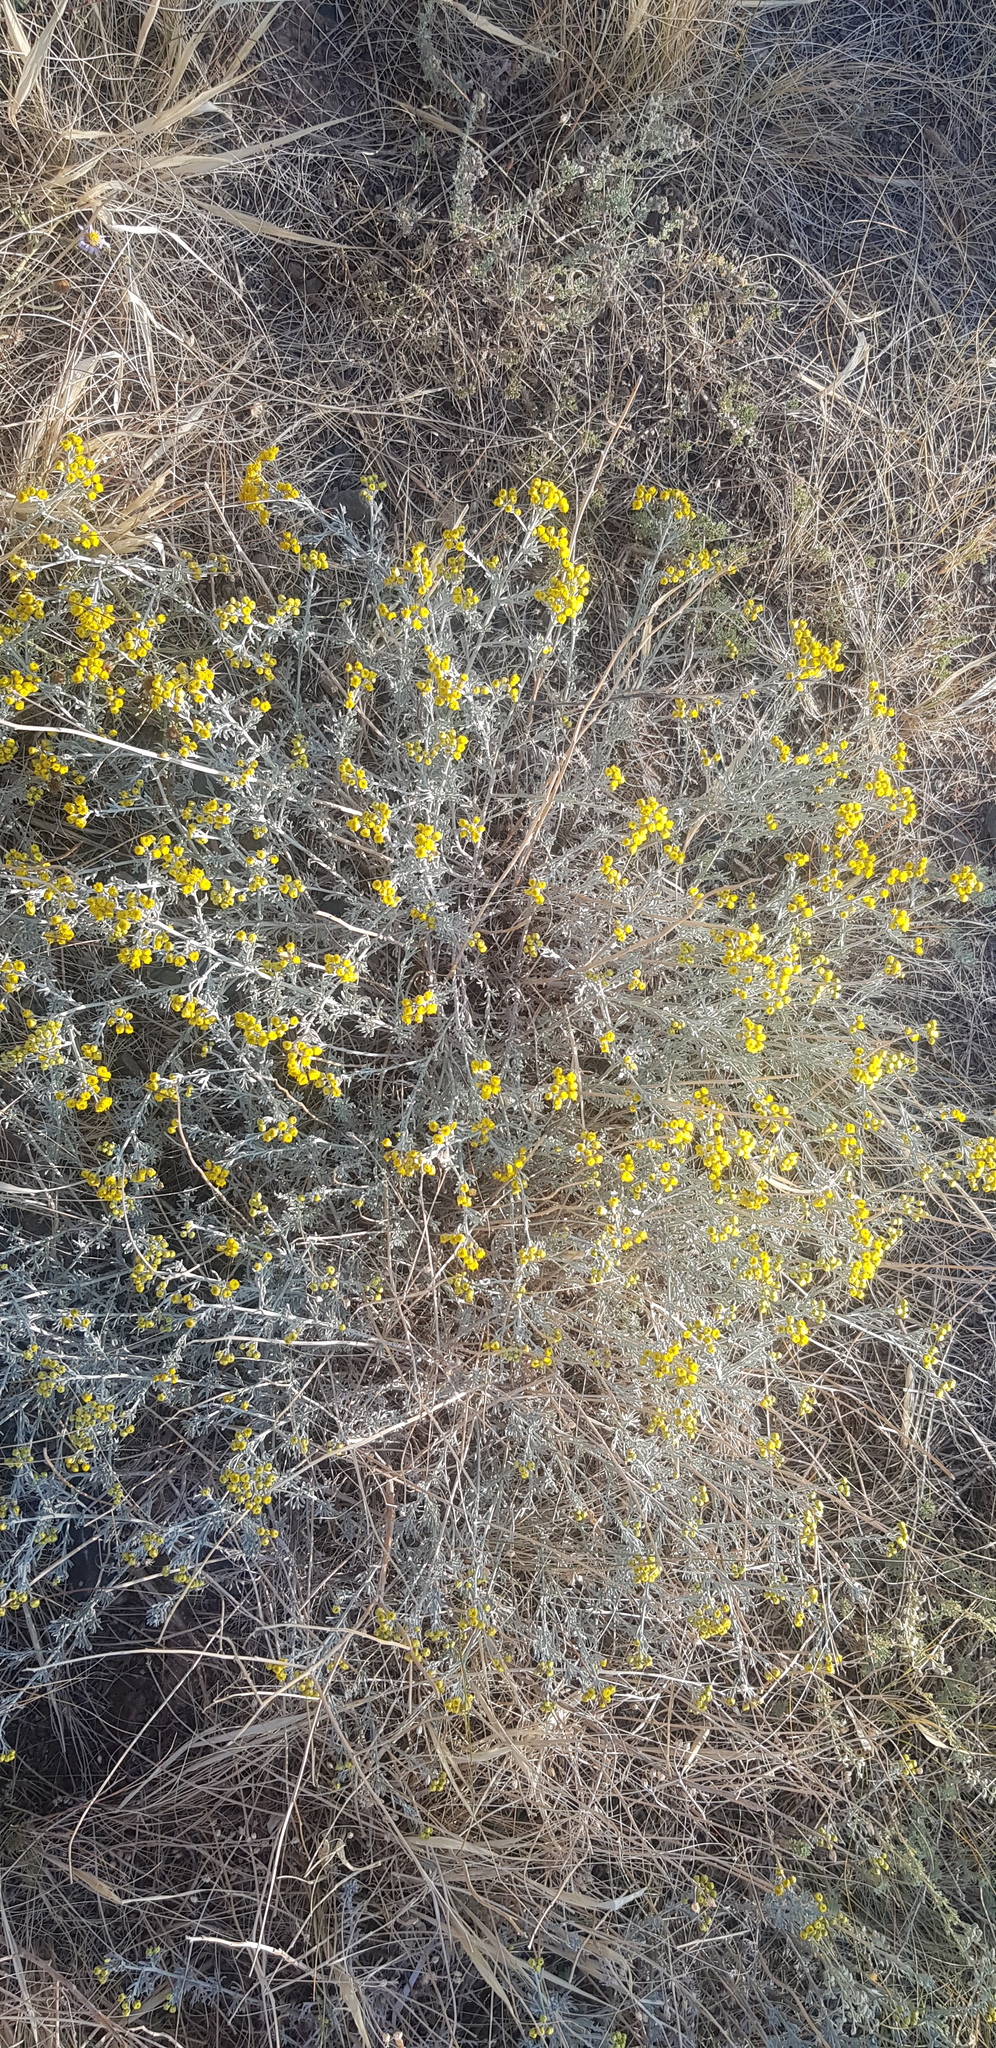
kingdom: Plantae
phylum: Tracheophyta
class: Magnoliopsida
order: Asterales
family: Asteraceae
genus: Ajania
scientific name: Ajania achilleoides
